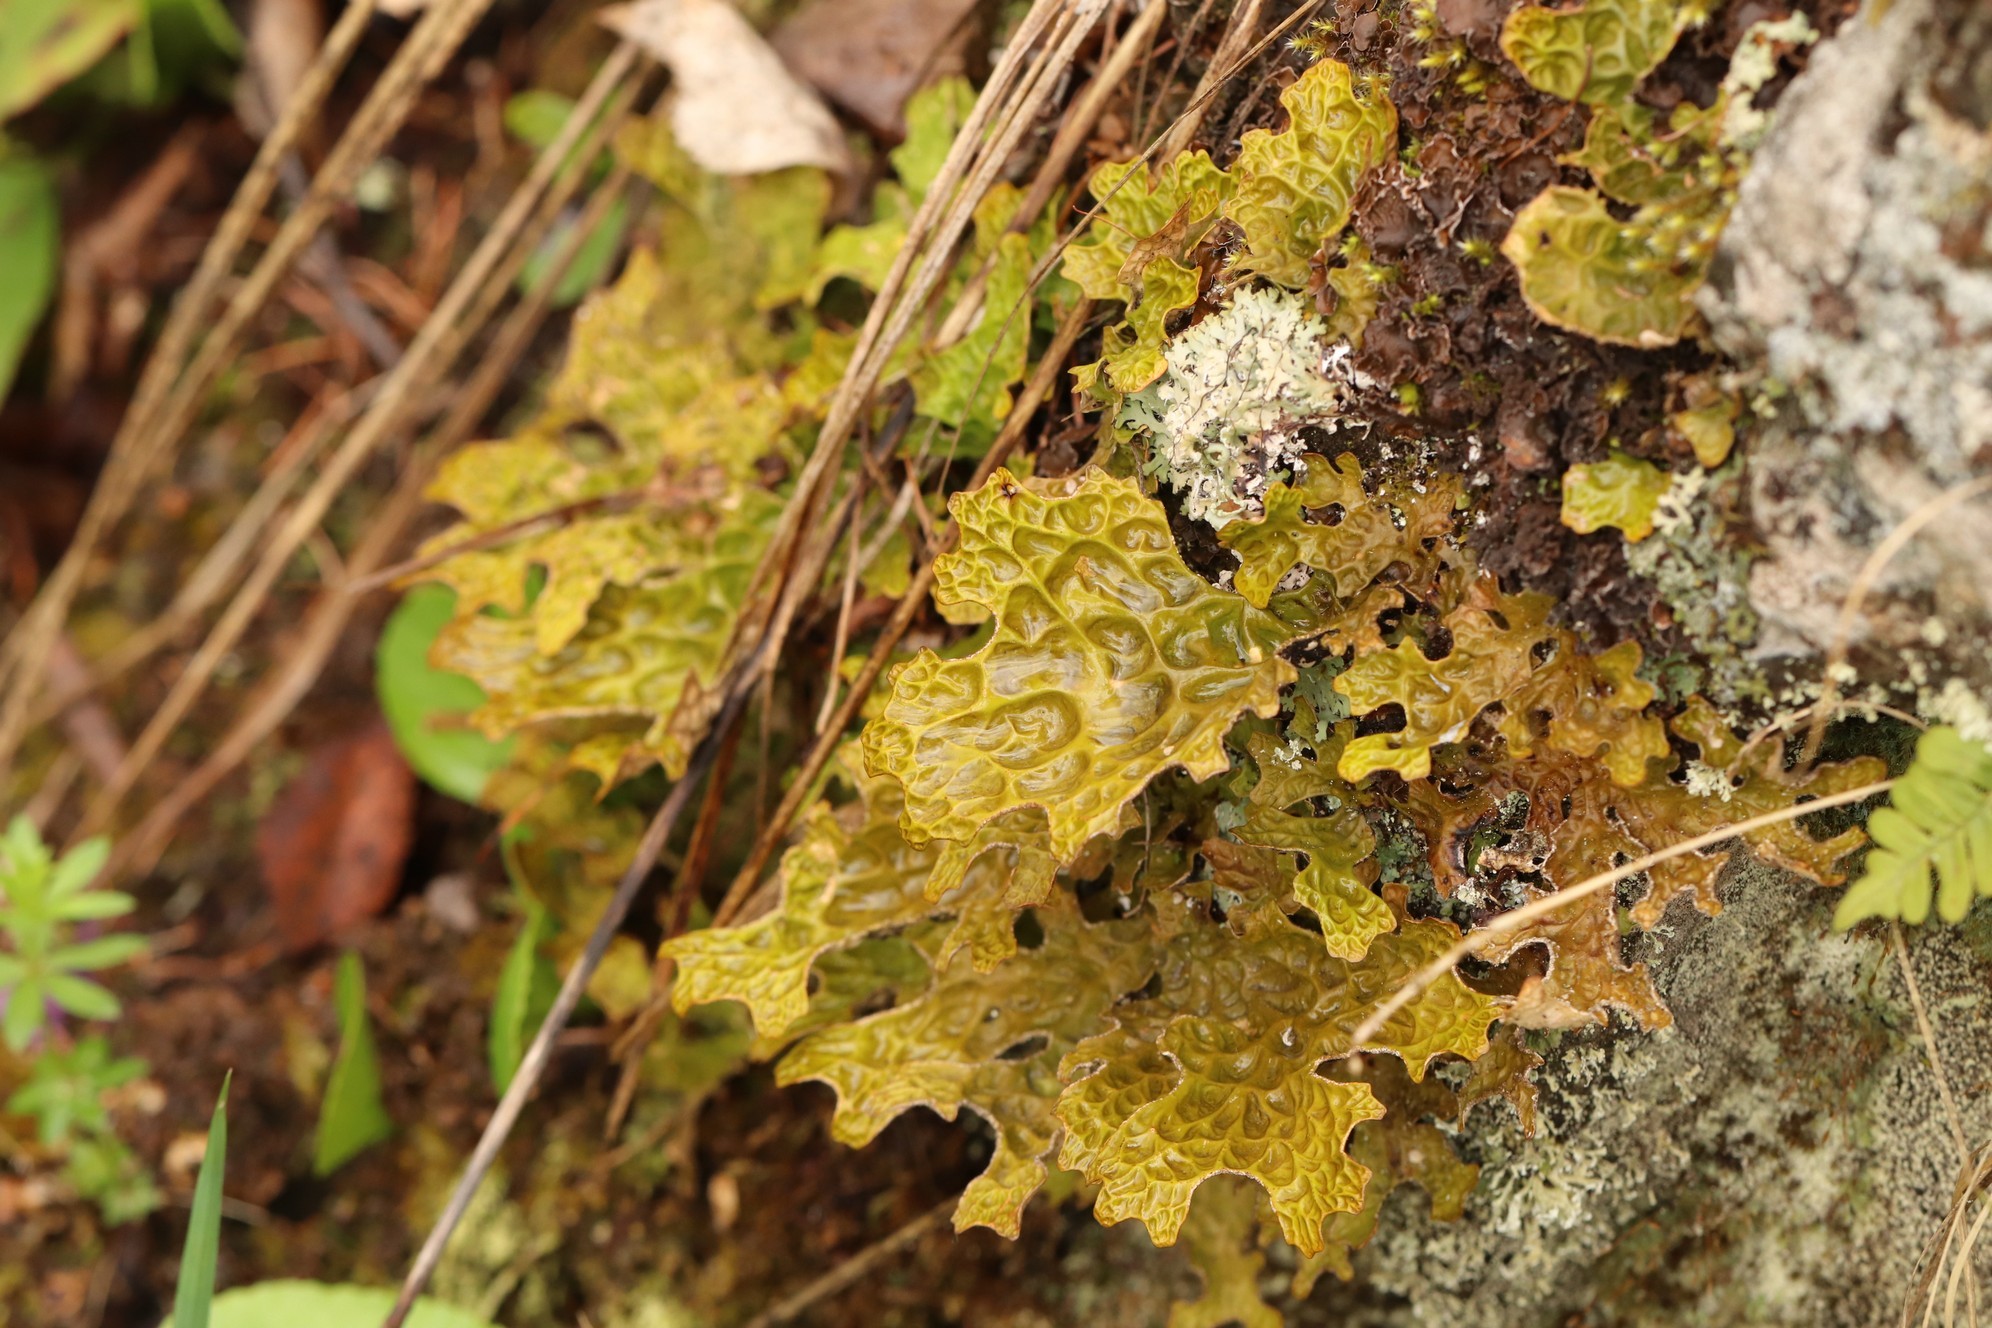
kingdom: Fungi
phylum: Ascomycota
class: Lecanoromycetes
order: Peltigerales
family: Lobariaceae
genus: Lobaria
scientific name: Lobaria pulmonaria
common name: Lungwort
